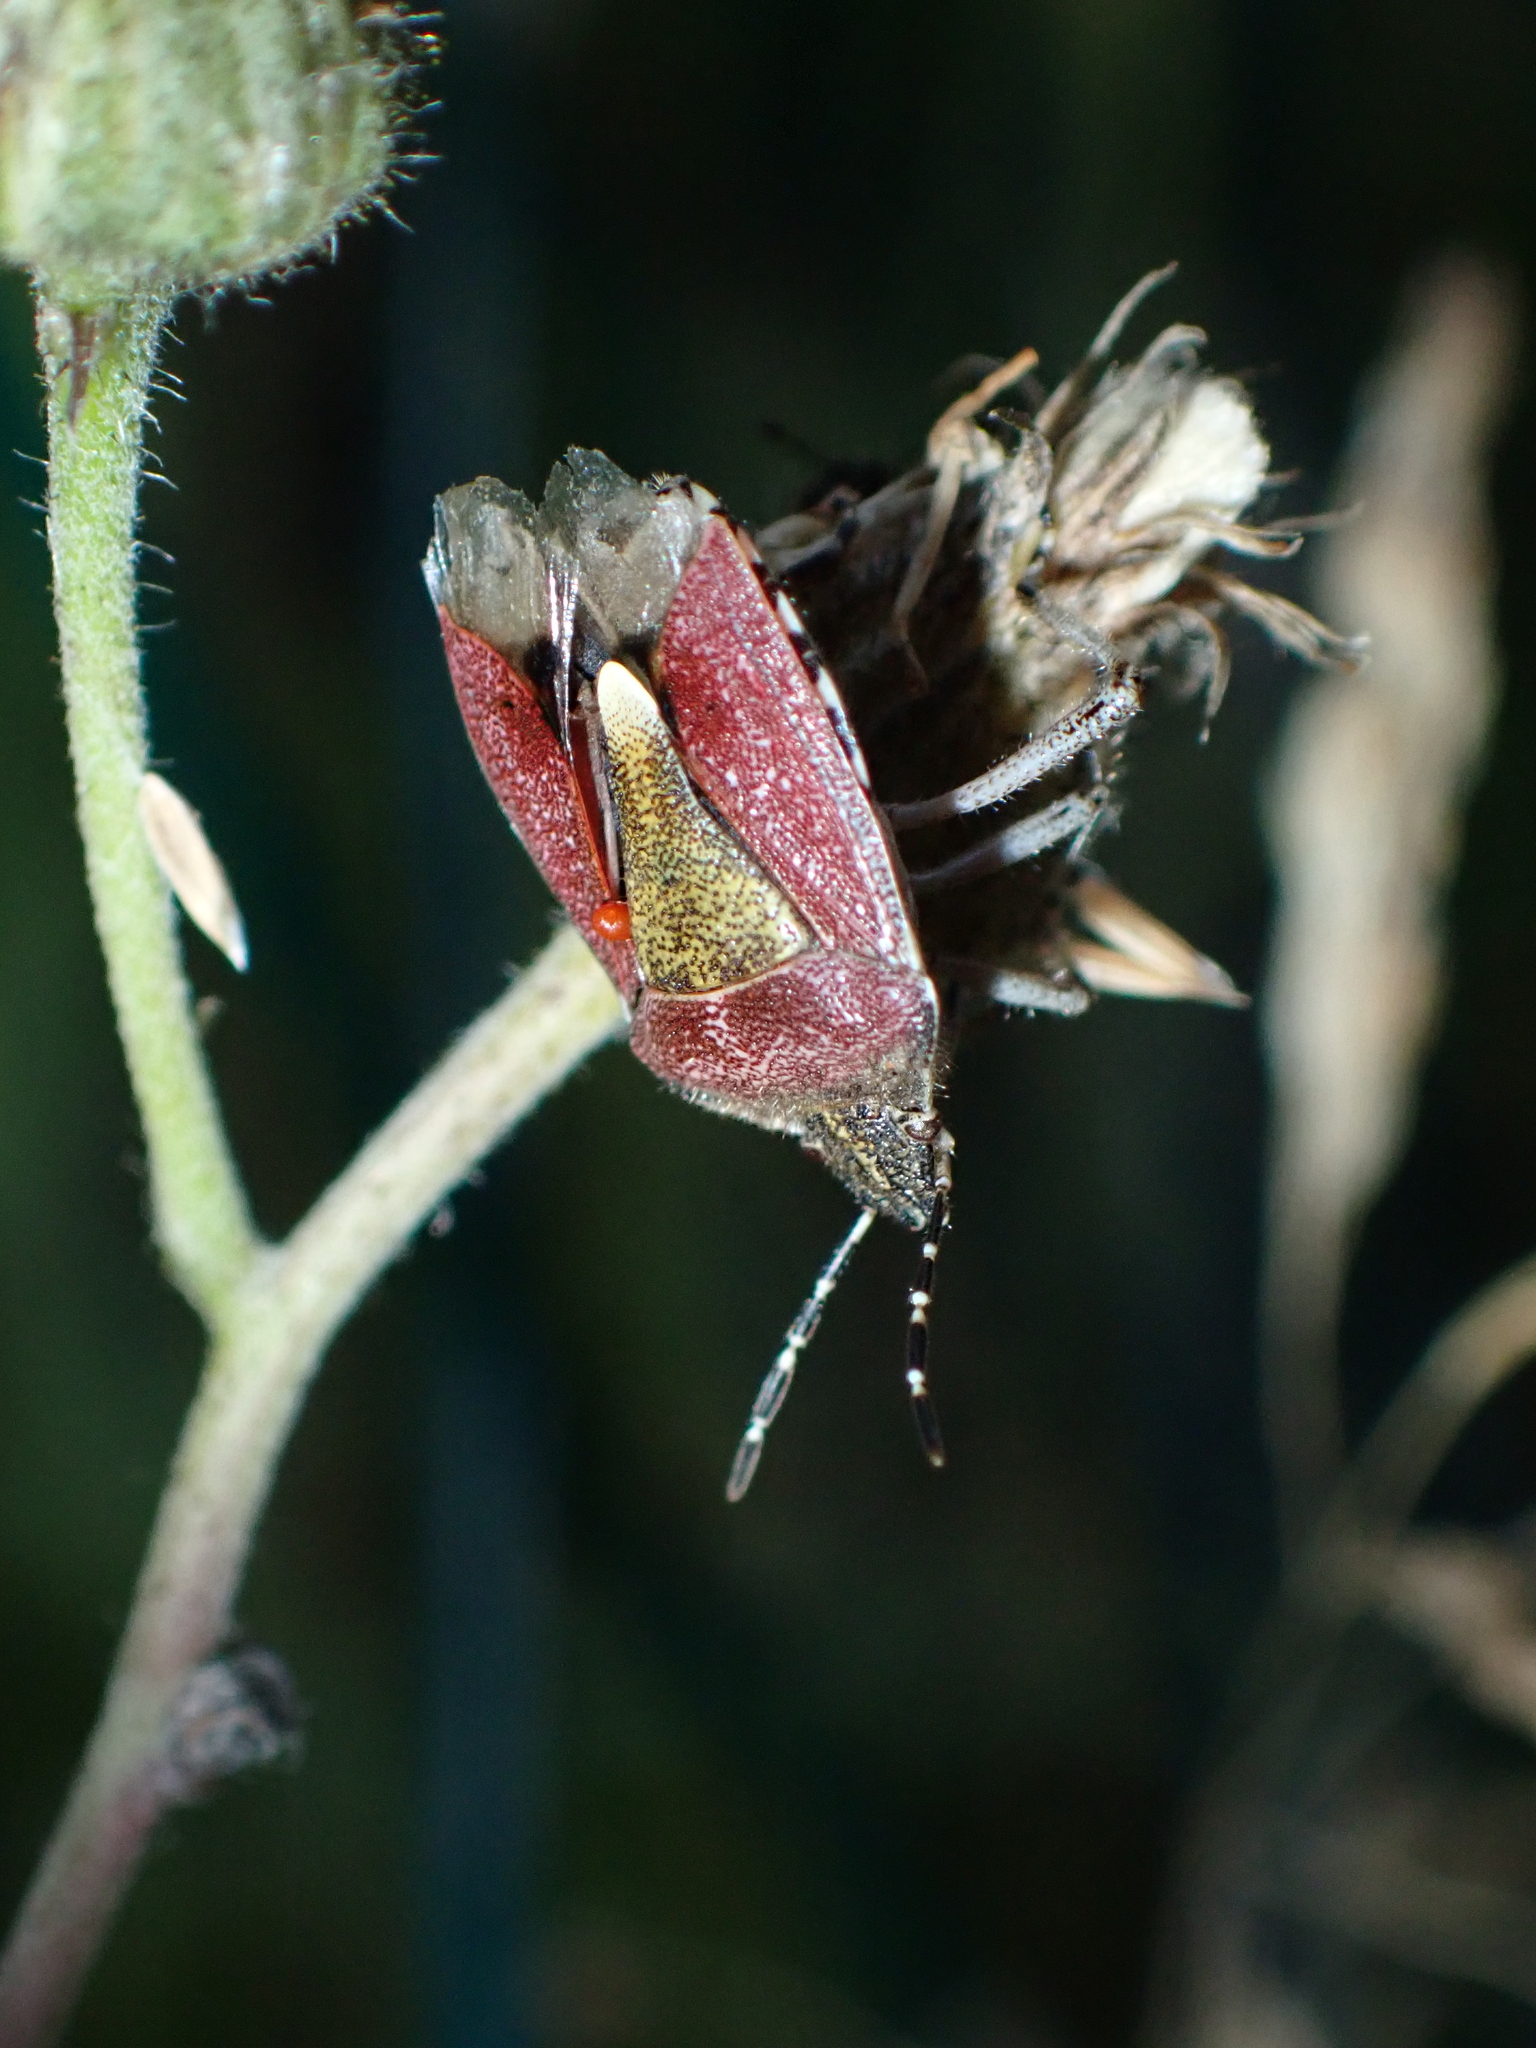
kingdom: Animalia
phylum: Arthropoda
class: Insecta
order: Hemiptera
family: Pentatomidae
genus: Dolycoris
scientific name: Dolycoris baccarum
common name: Sloe bug
